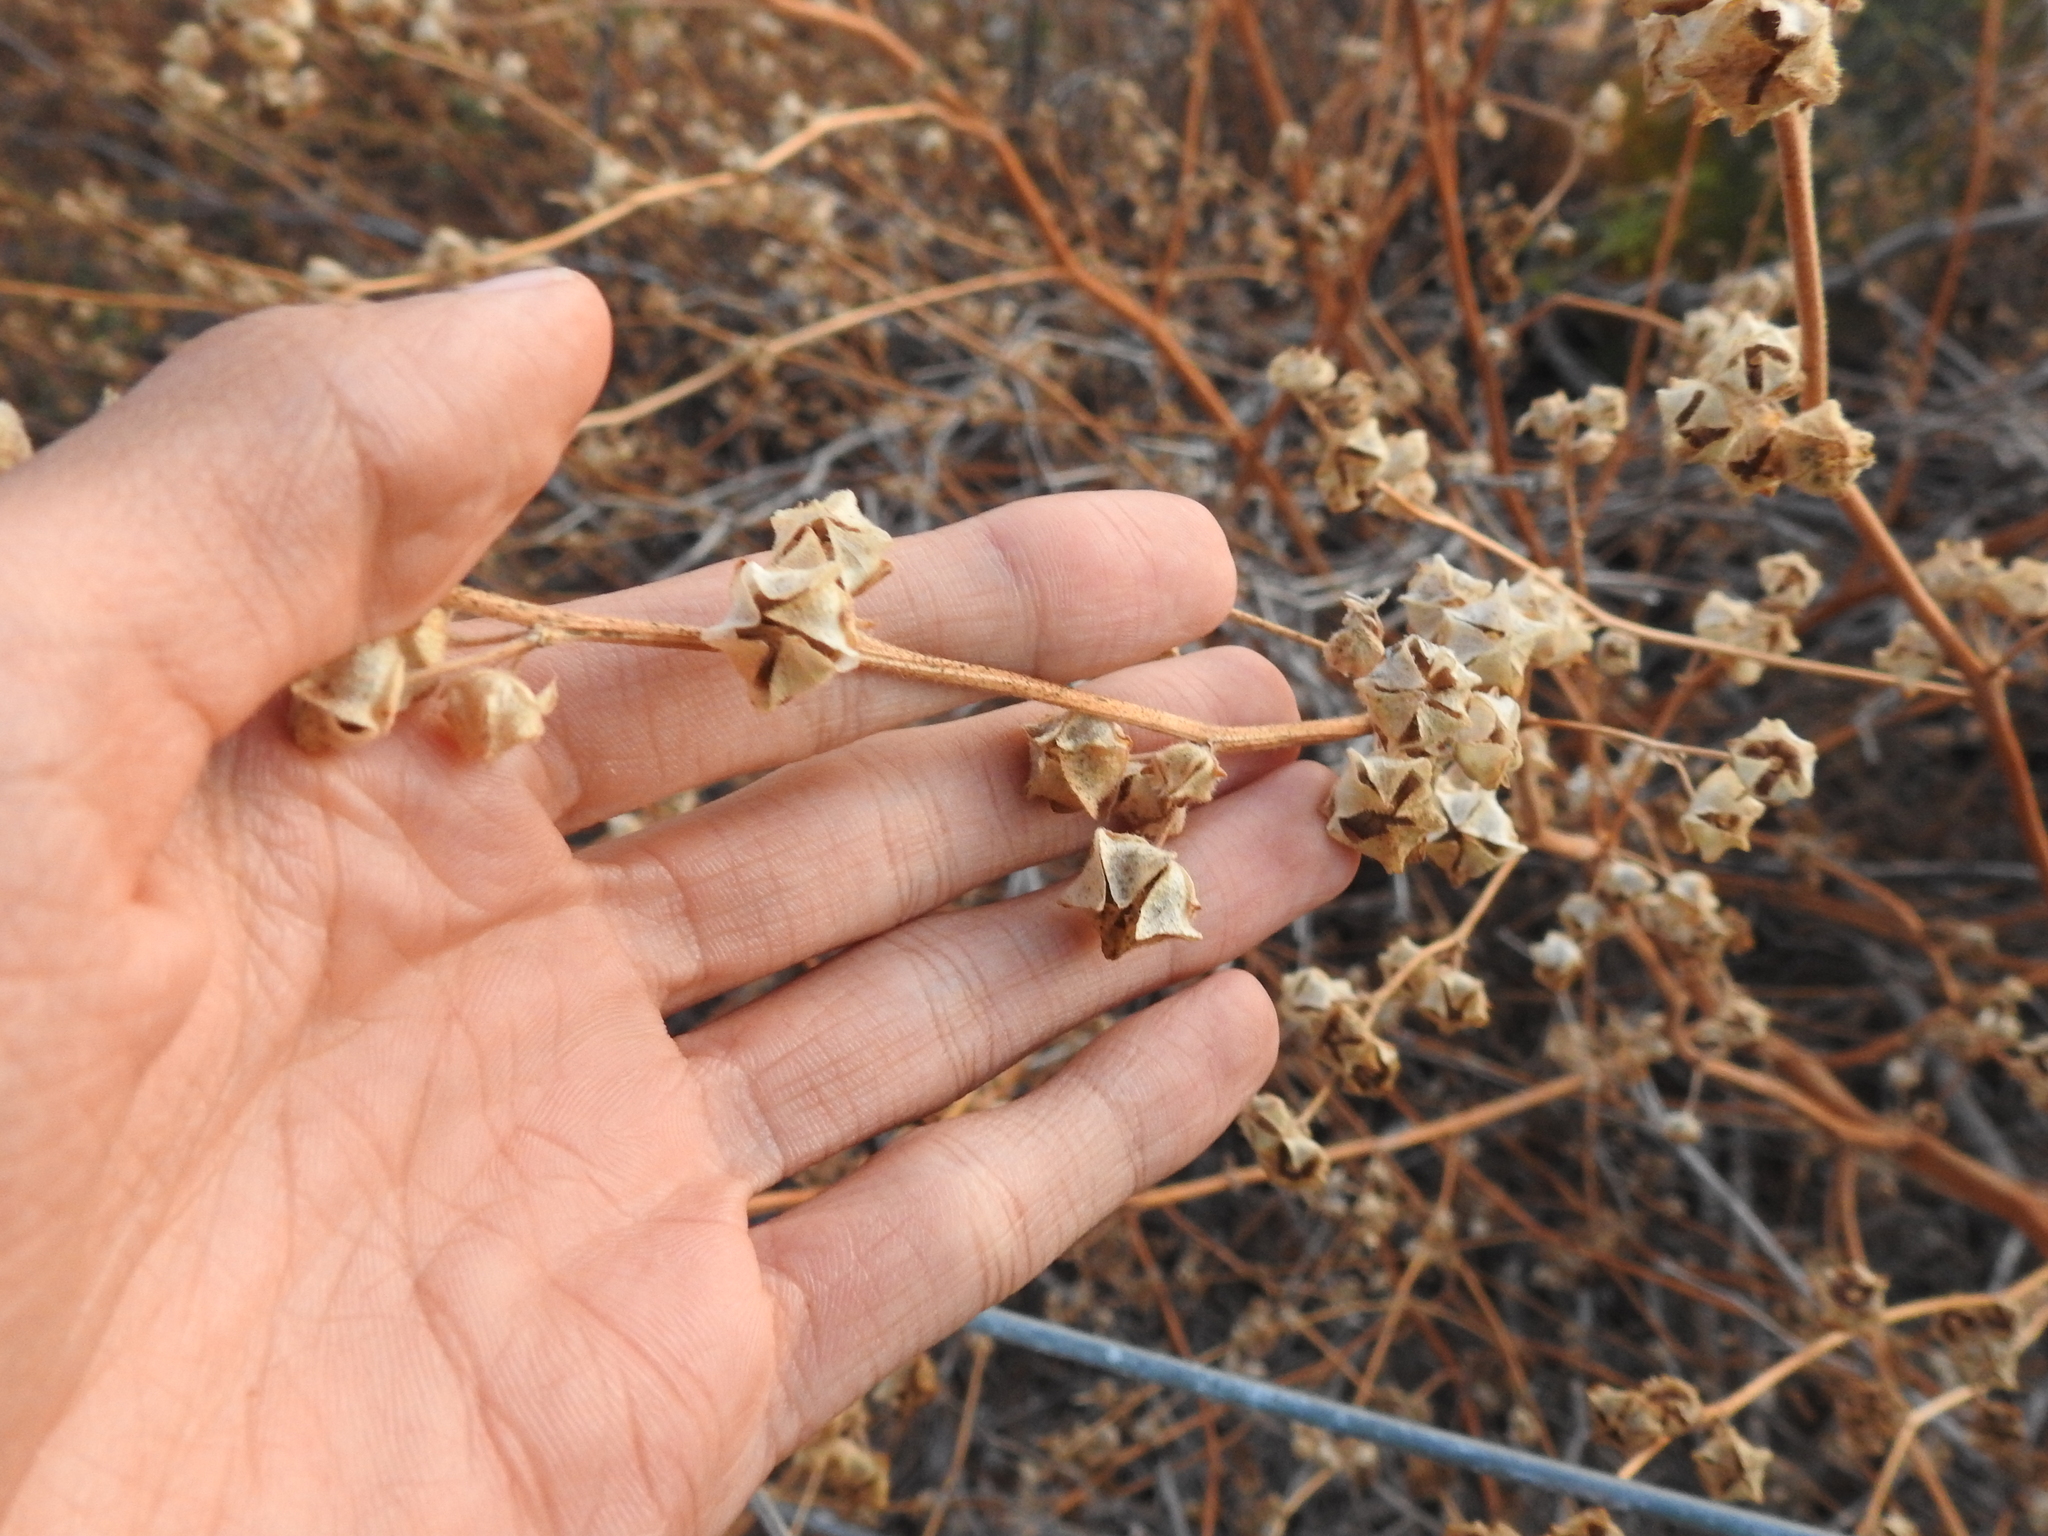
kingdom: Plantae
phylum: Tracheophyta
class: Magnoliopsida
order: Malvales
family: Malvaceae
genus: Malva
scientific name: Malva multiflora
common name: Cheeseweed
